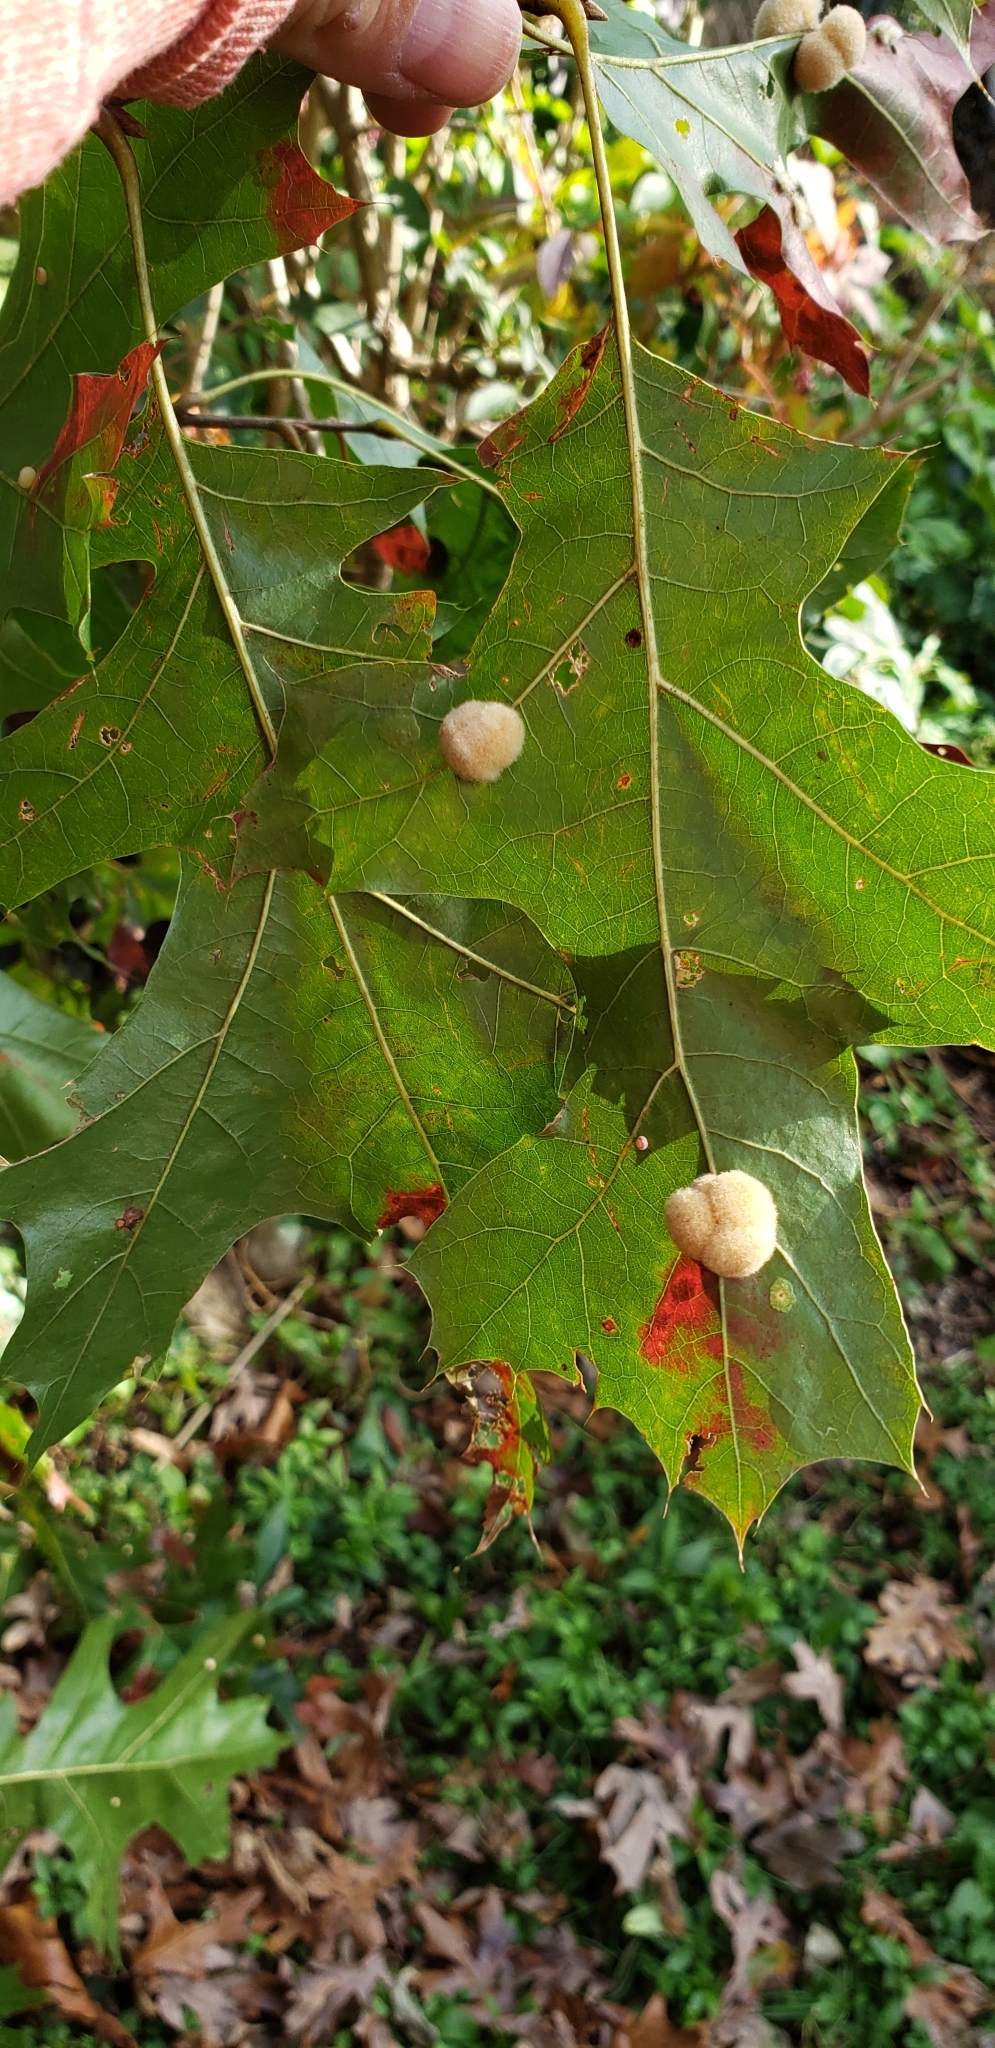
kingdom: Animalia
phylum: Arthropoda
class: Insecta
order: Hymenoptera
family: Cynipidae
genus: Callirhytis
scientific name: Callirhytis
